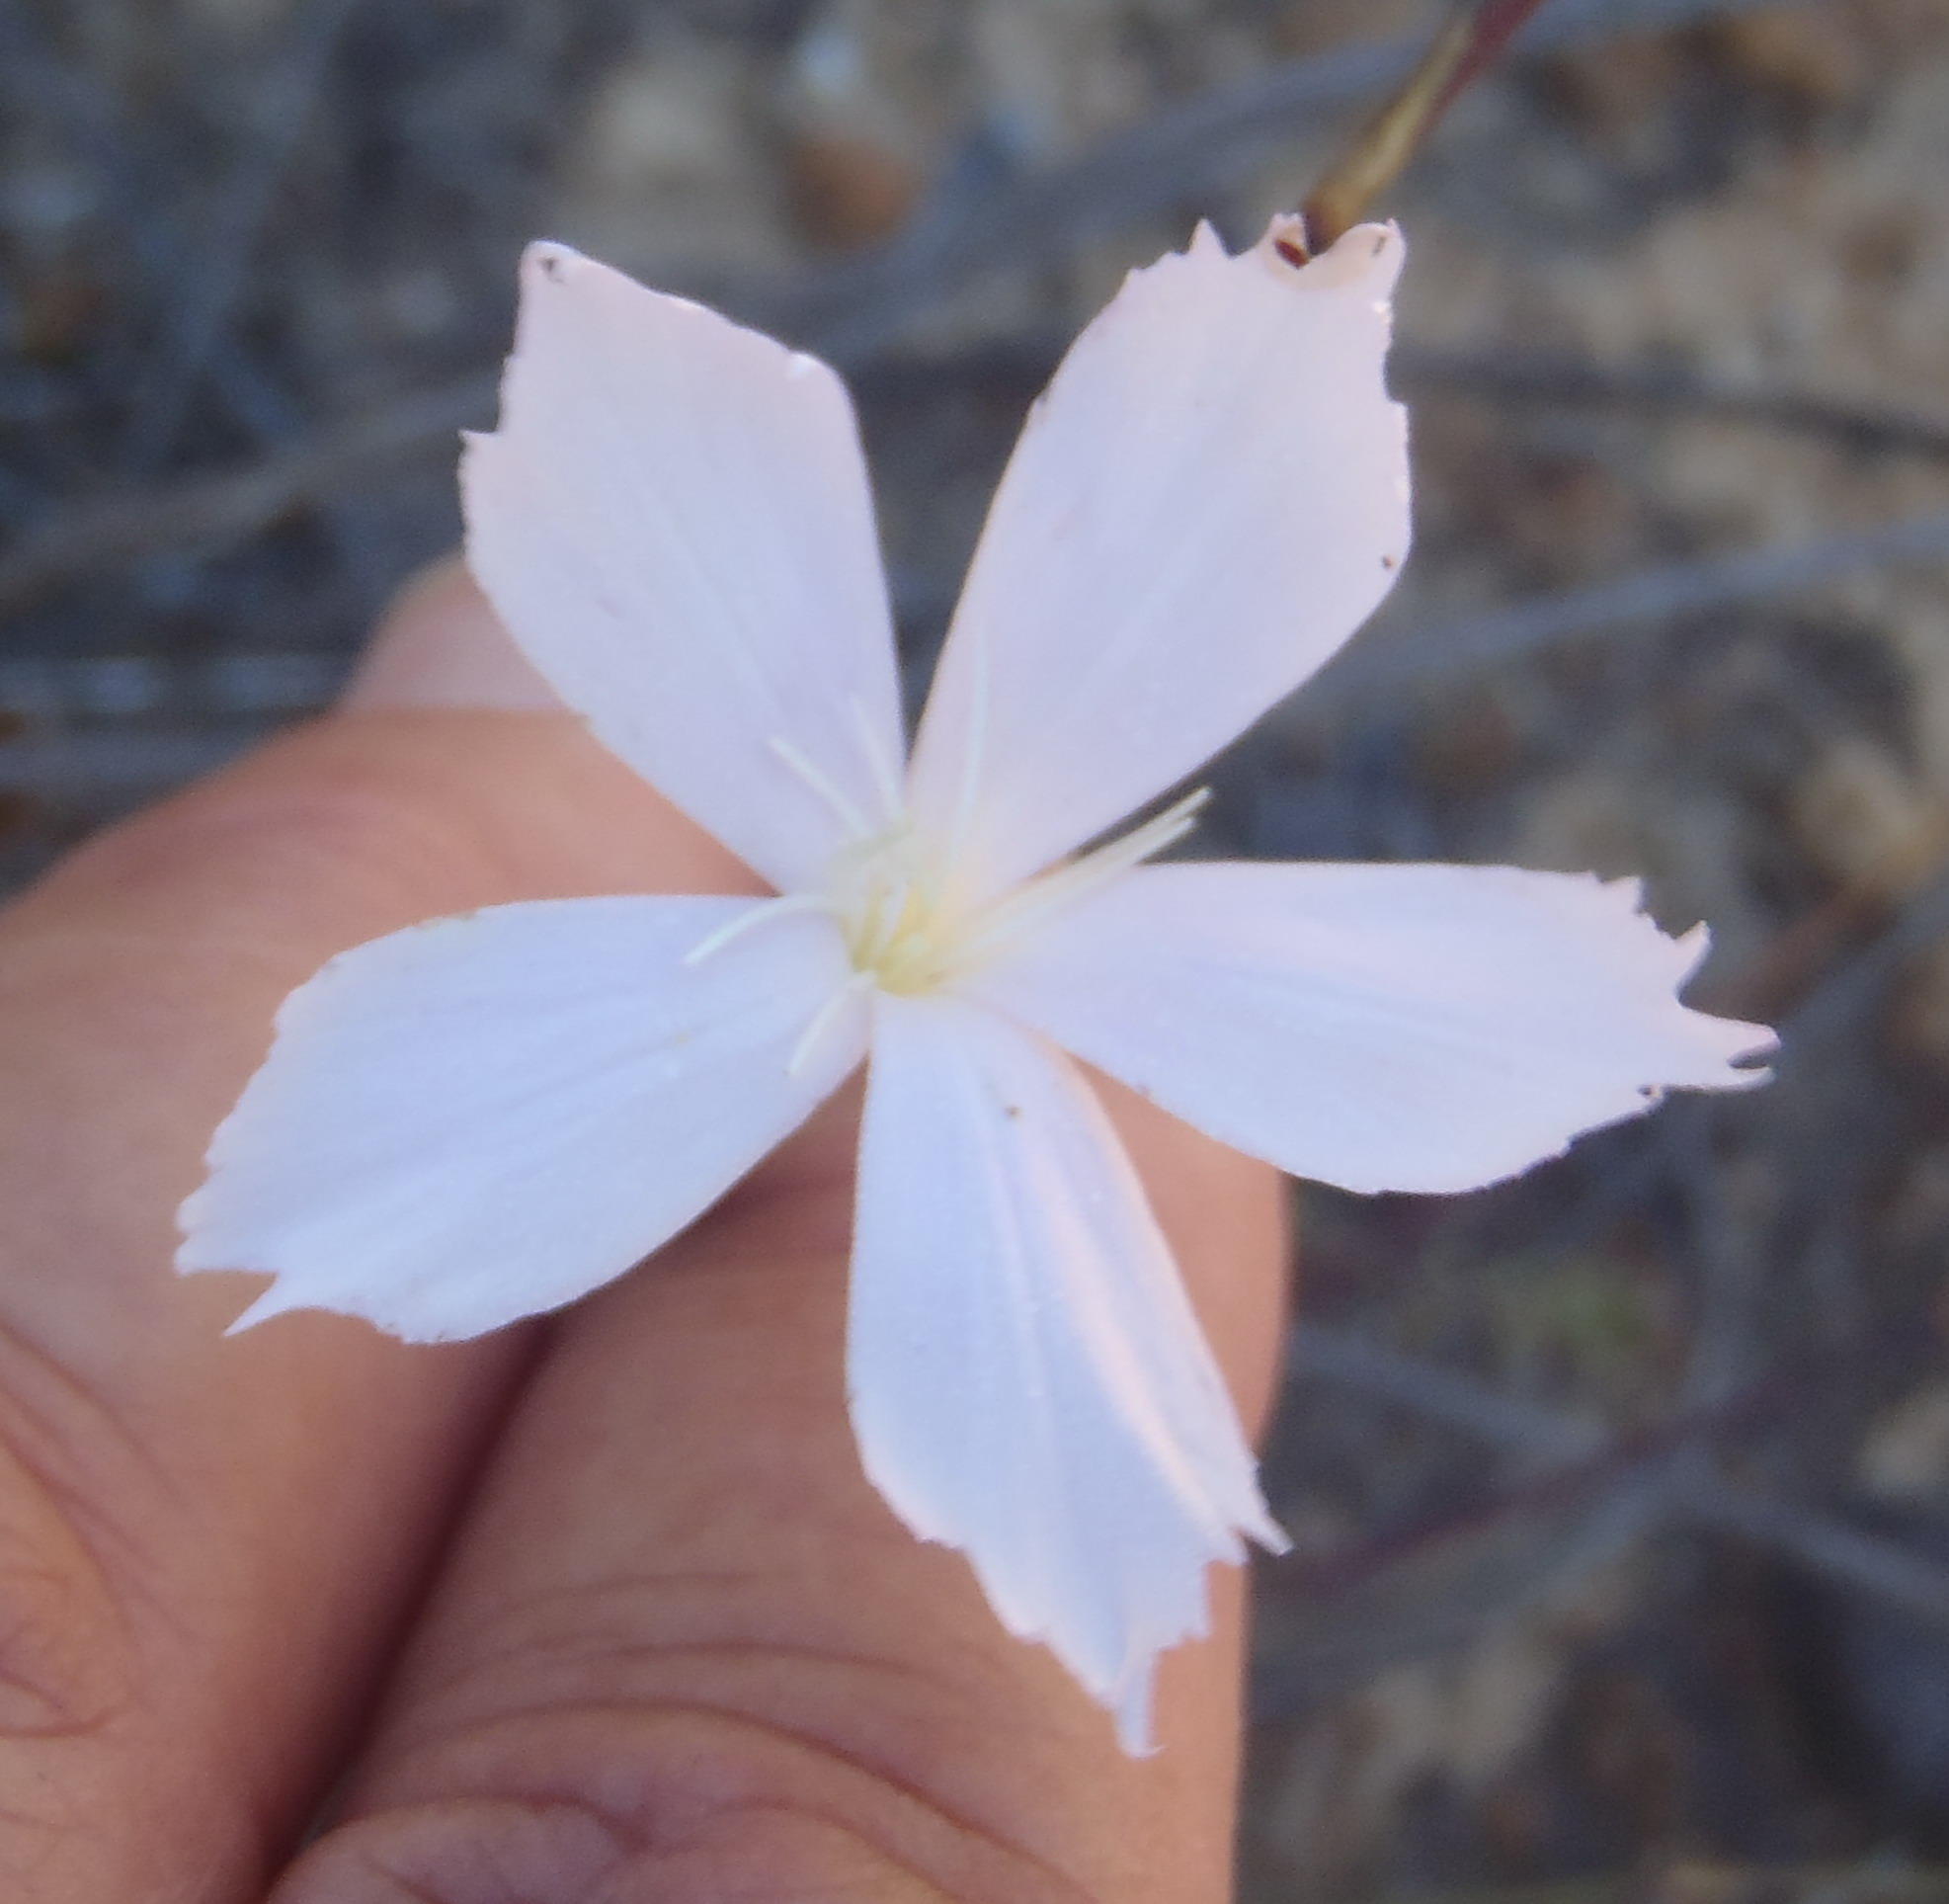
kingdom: Plantae
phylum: Tracheophyta
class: Magnoliopsida
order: Caryophyllales
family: Caryophyllaceae
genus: Dianthus
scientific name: Dianthus thunbergii
